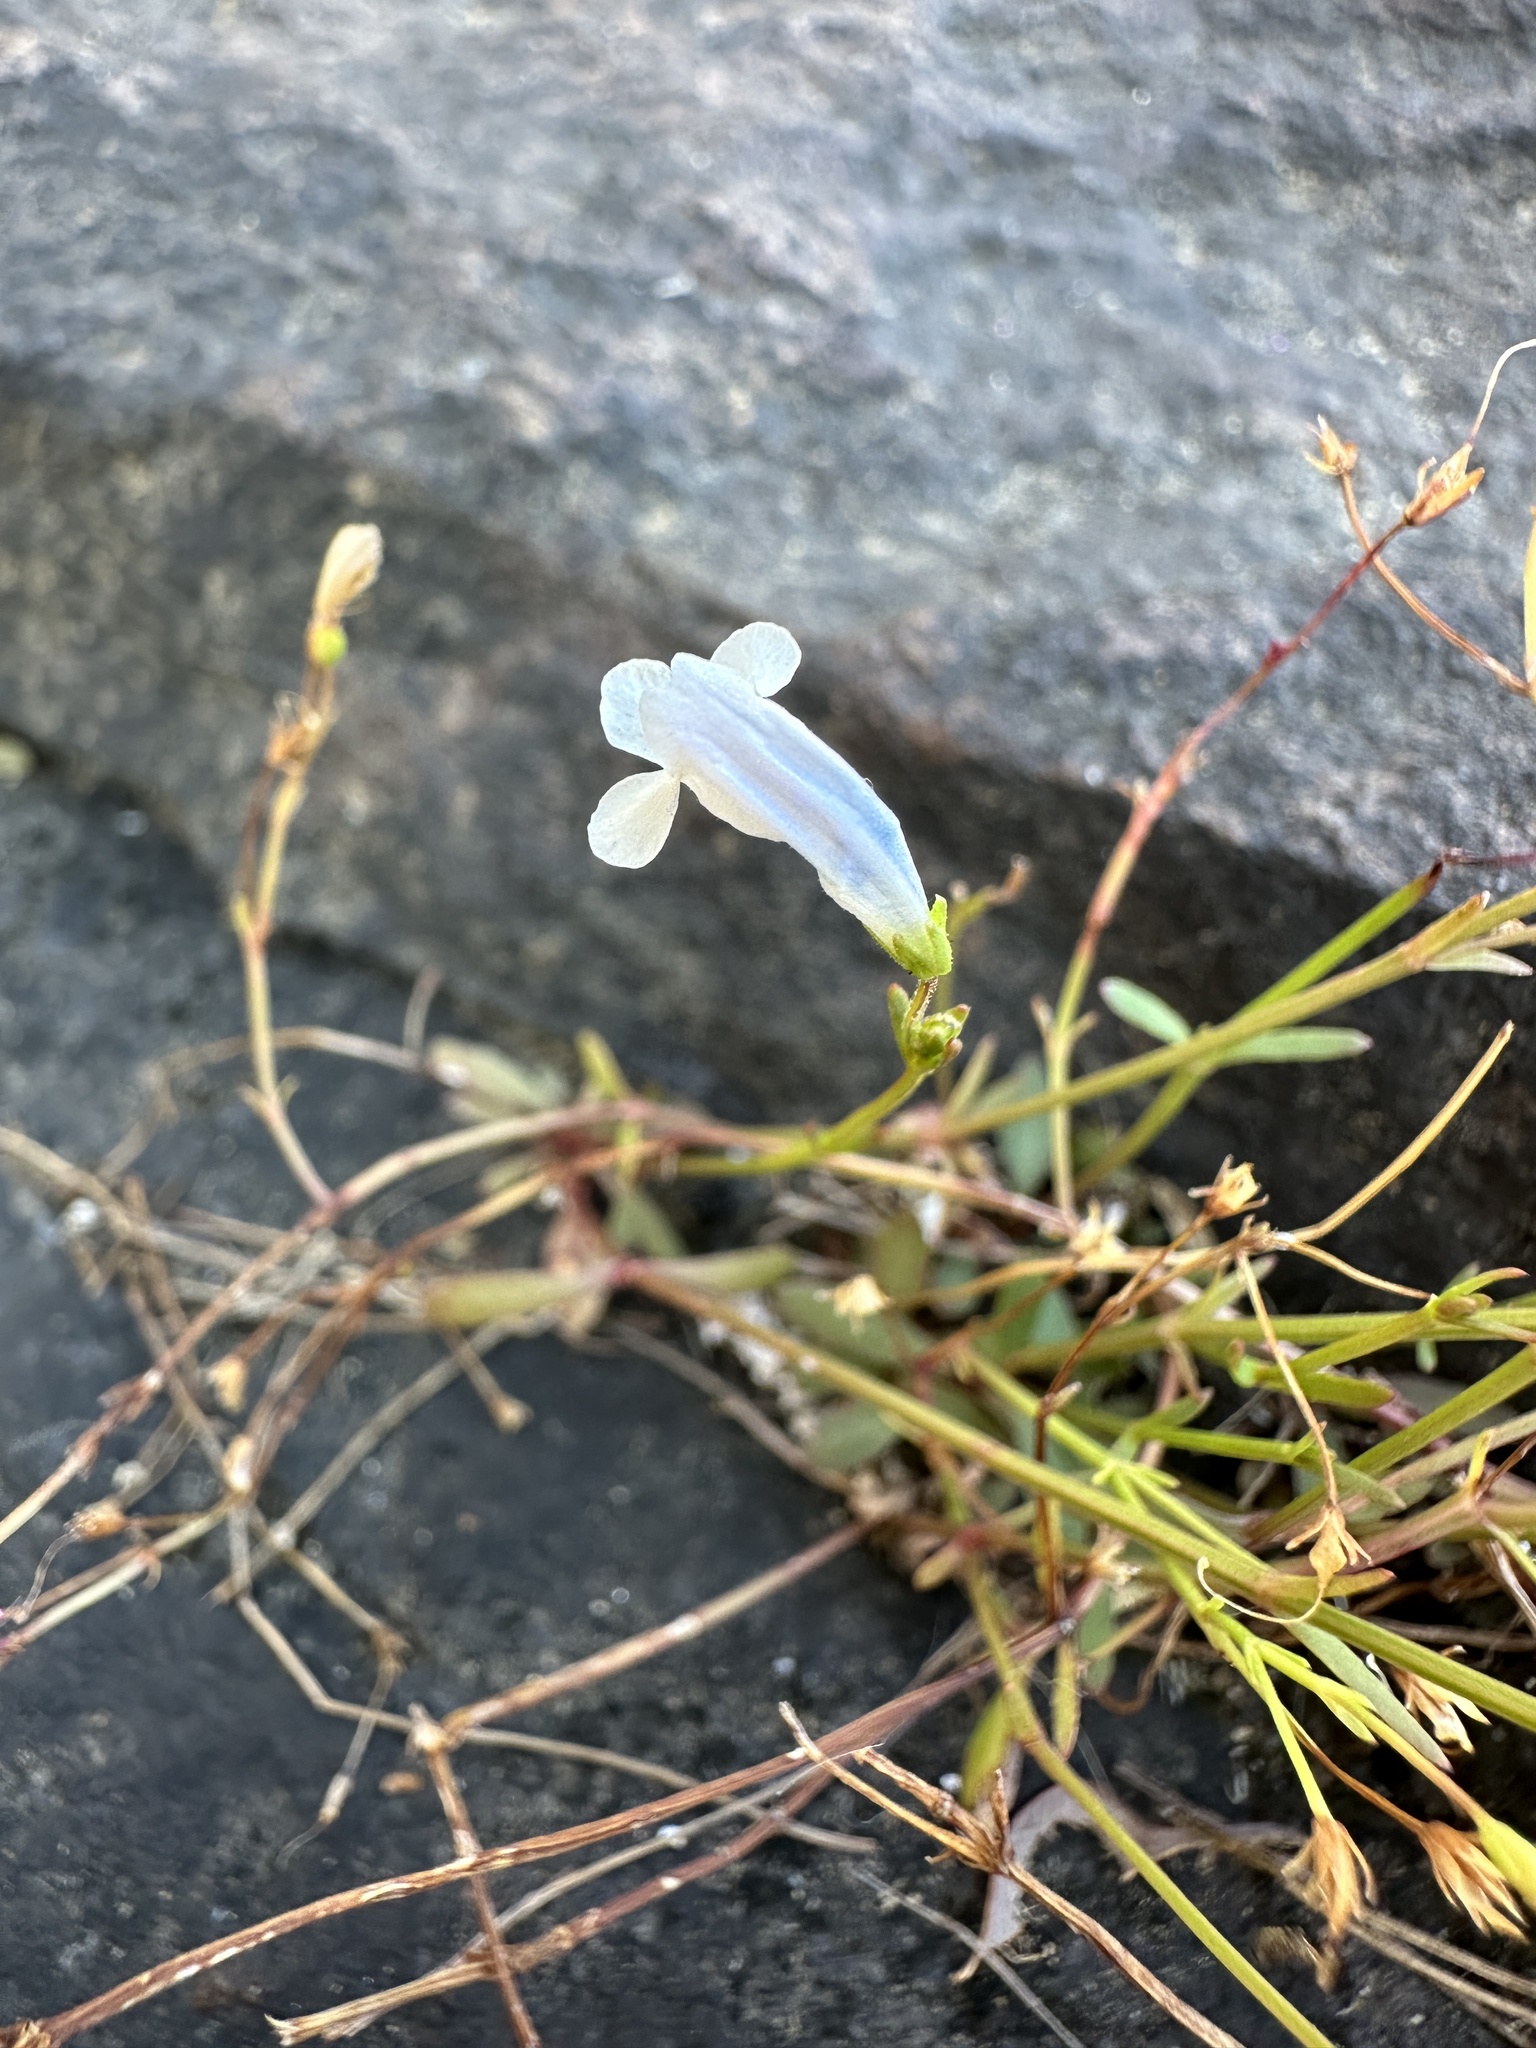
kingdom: Plantae
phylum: Tracheophyta
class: Magnoliopsida
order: Lamiales
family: Linderniaceae
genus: Lindernia
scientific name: Lindernia monticola
